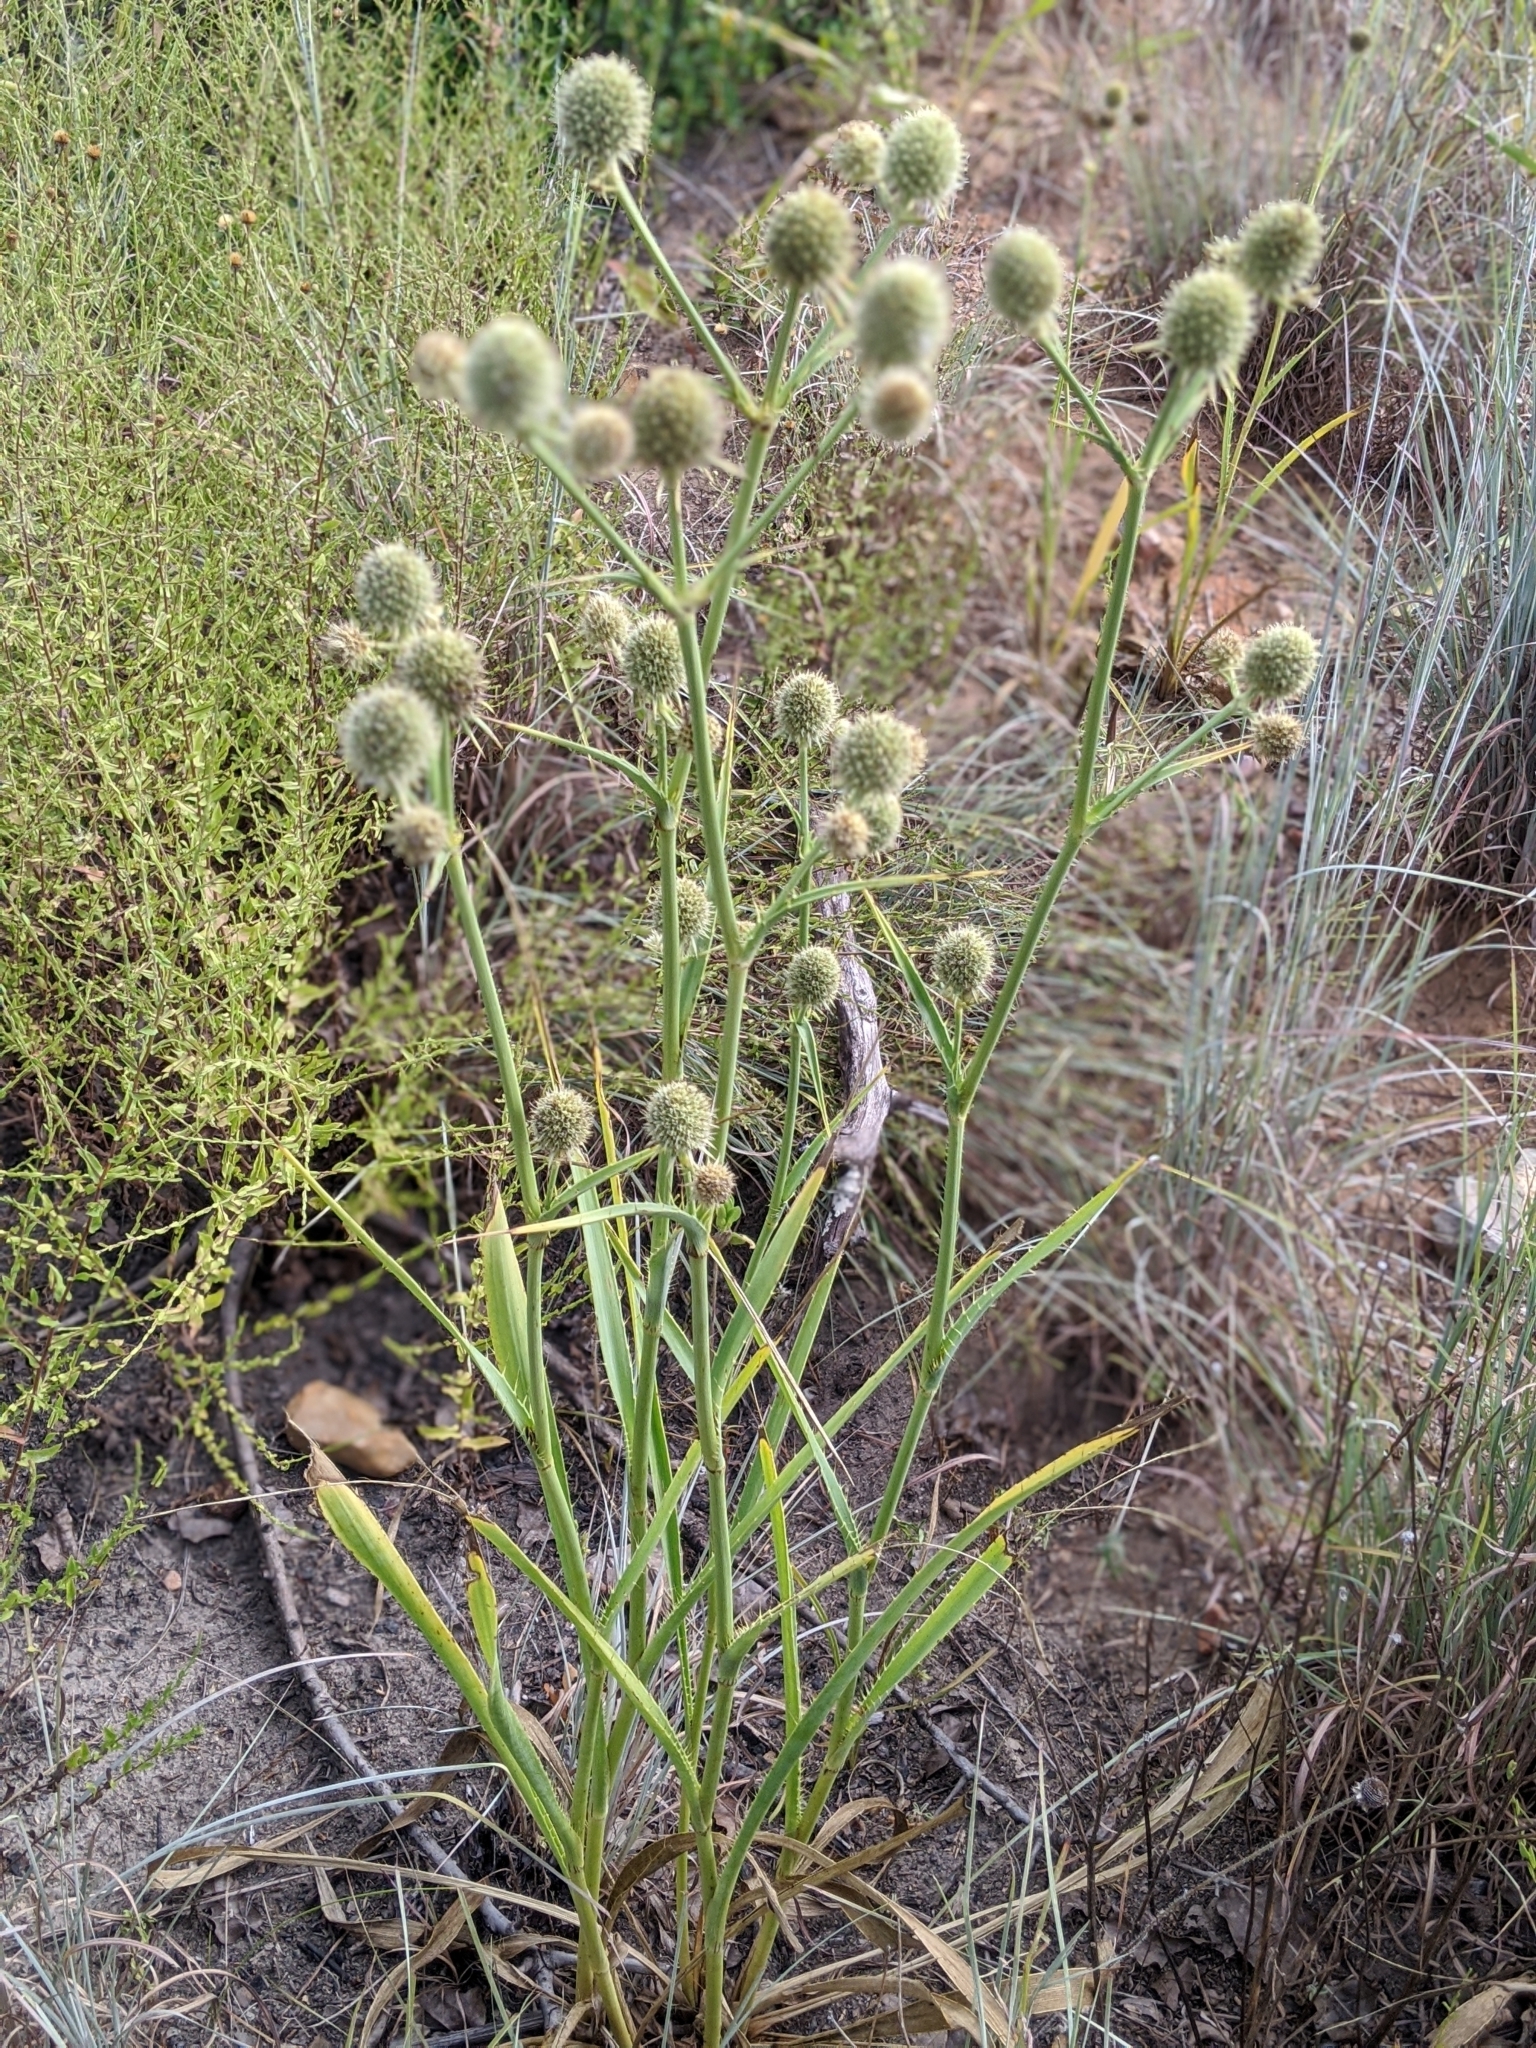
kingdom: Plantae
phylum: Tracheophyta
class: Magnoliopsida
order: Apiales
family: Apiaceae
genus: Eryngium
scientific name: Eryngium yuccifolium
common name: Button eryngo
